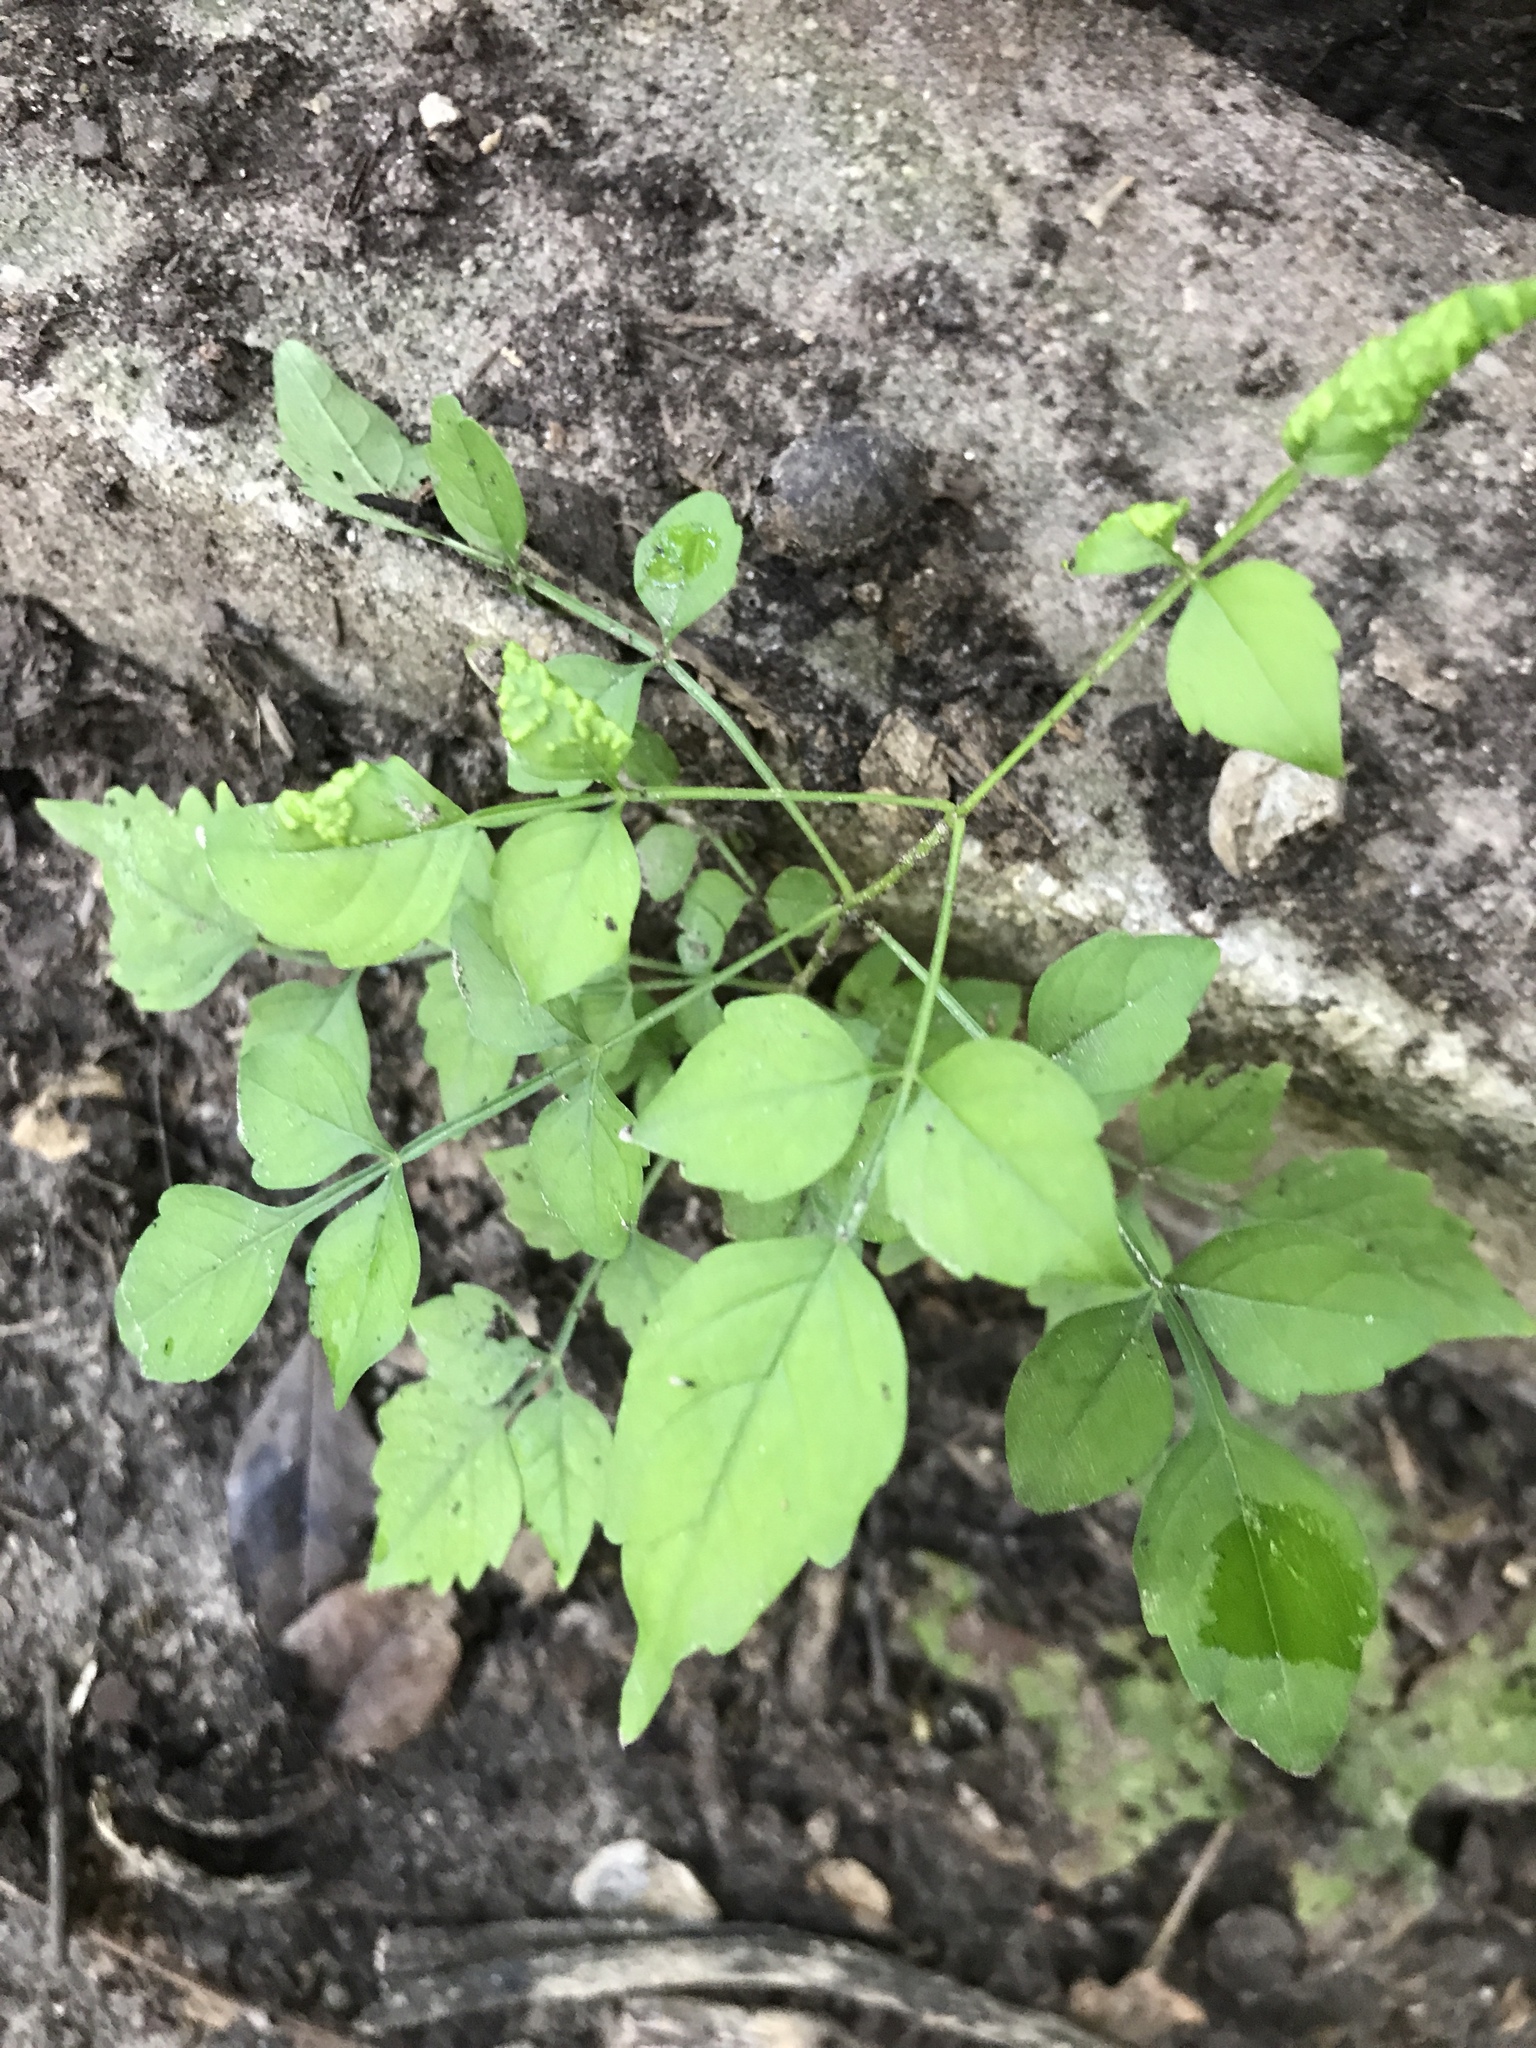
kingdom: Plantae
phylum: Tracheophyta
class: Magnoliopsida
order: Lamiales
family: Bignoniaceae
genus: Campsis
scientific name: Campsis radicans
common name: Trumpet-creeper
